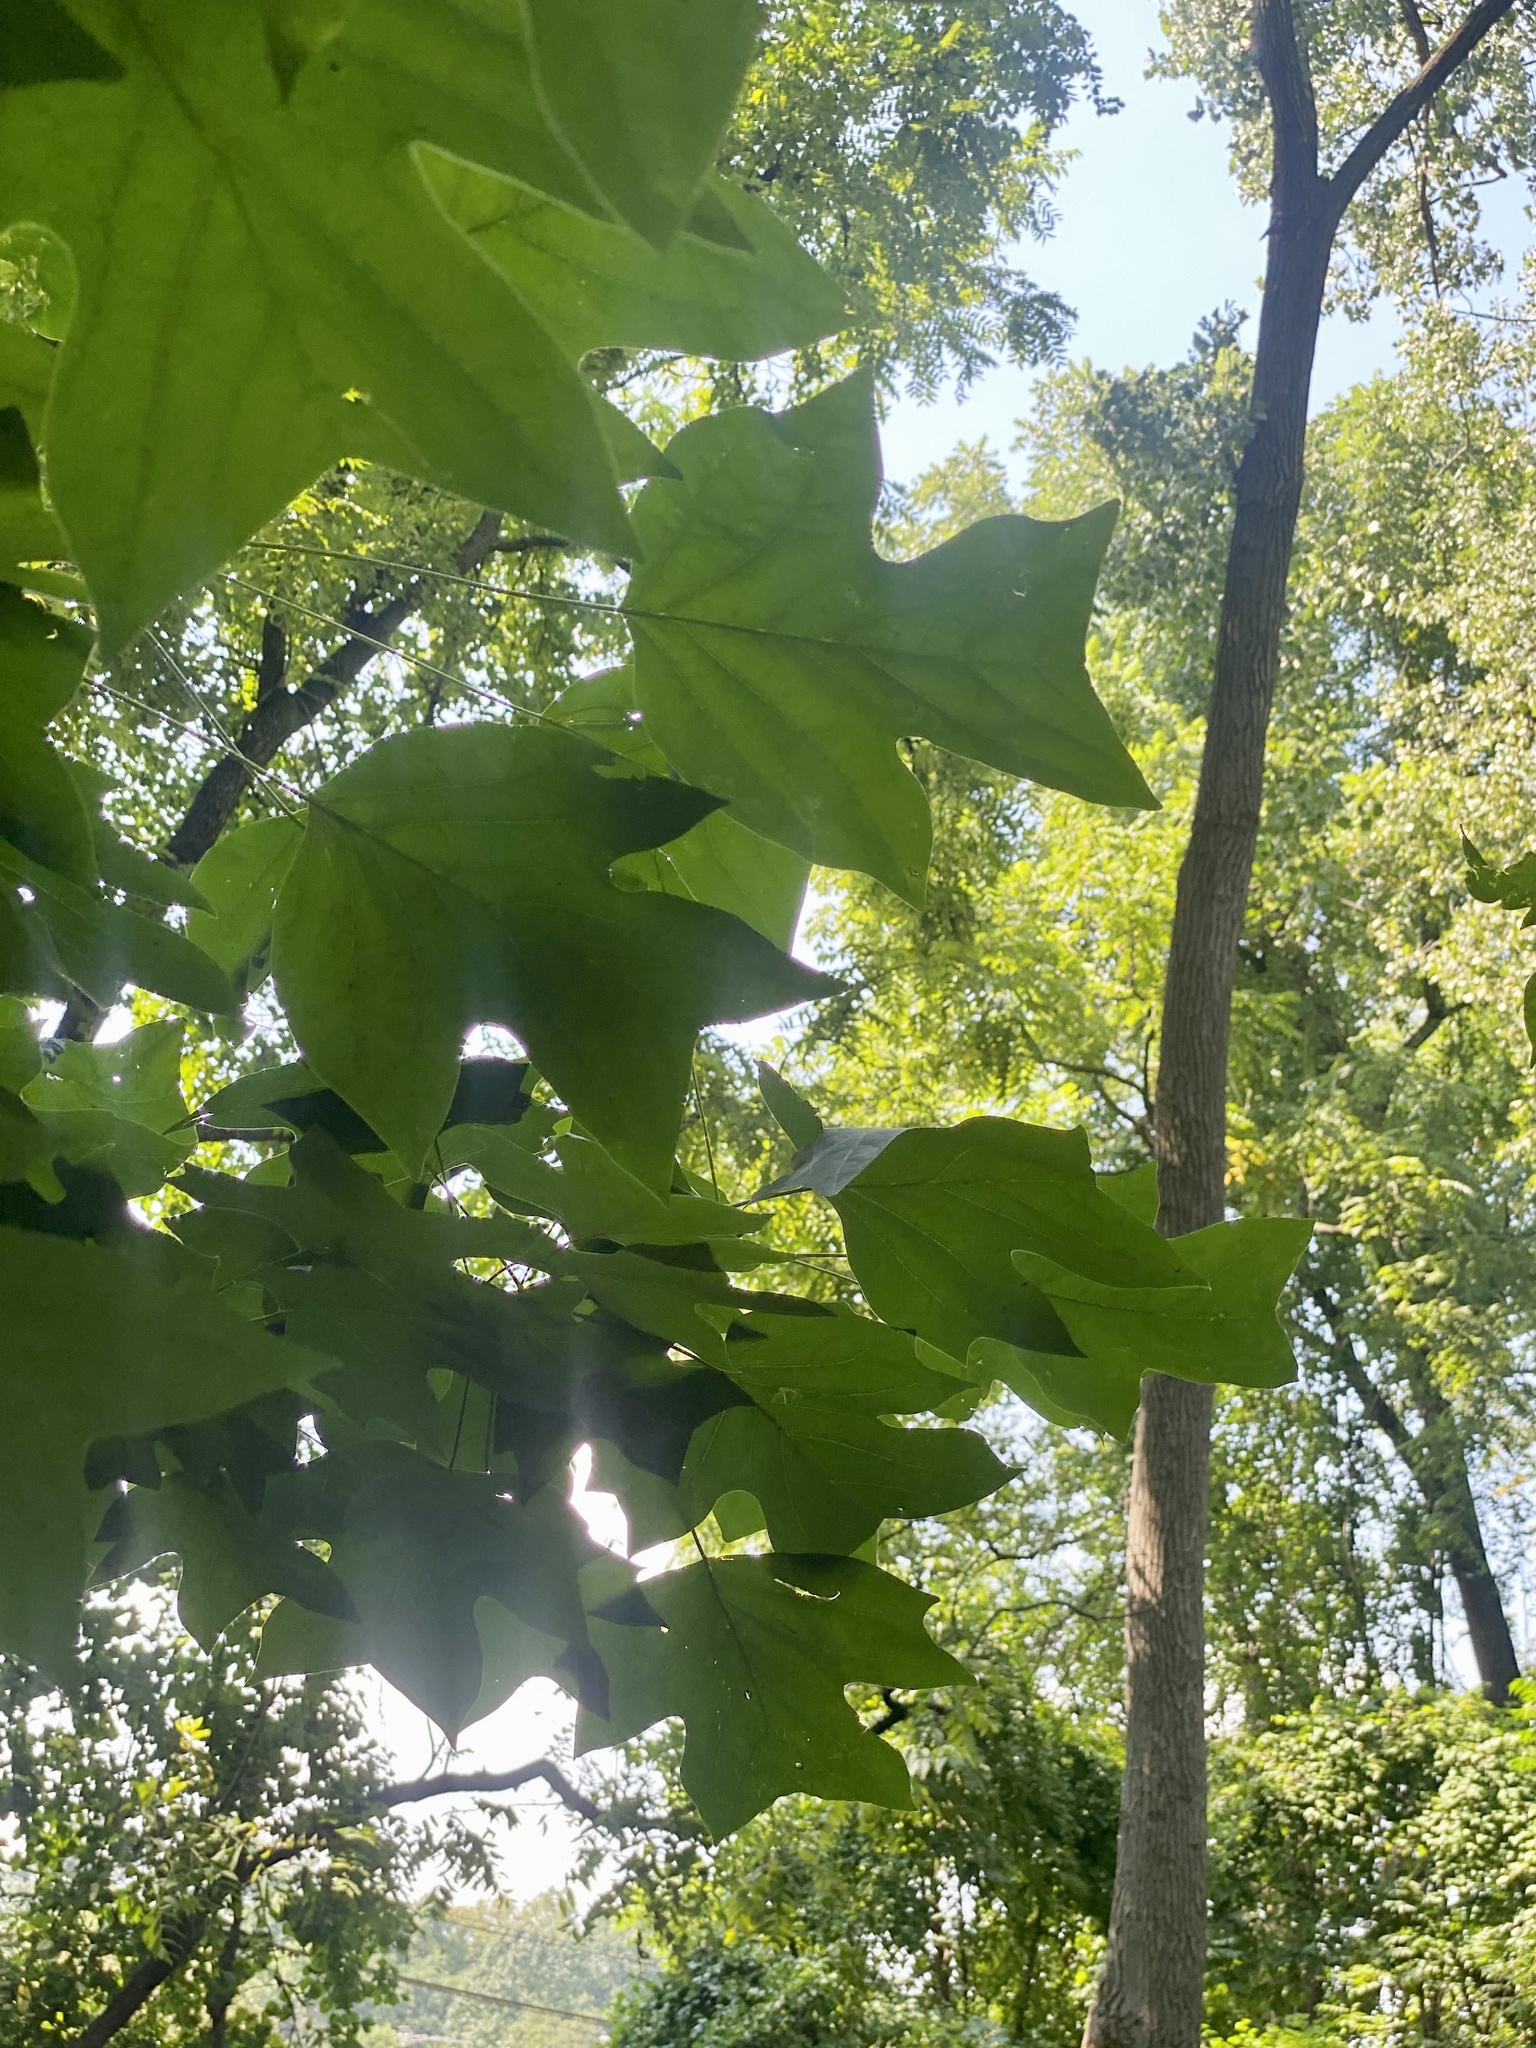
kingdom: Plantae
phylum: Tracheophyta
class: Magnoliopsida
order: Magnoliales
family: Magnoliaceae
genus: Liriodendron
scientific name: Liriodendron tulipifera
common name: Tulip tree
